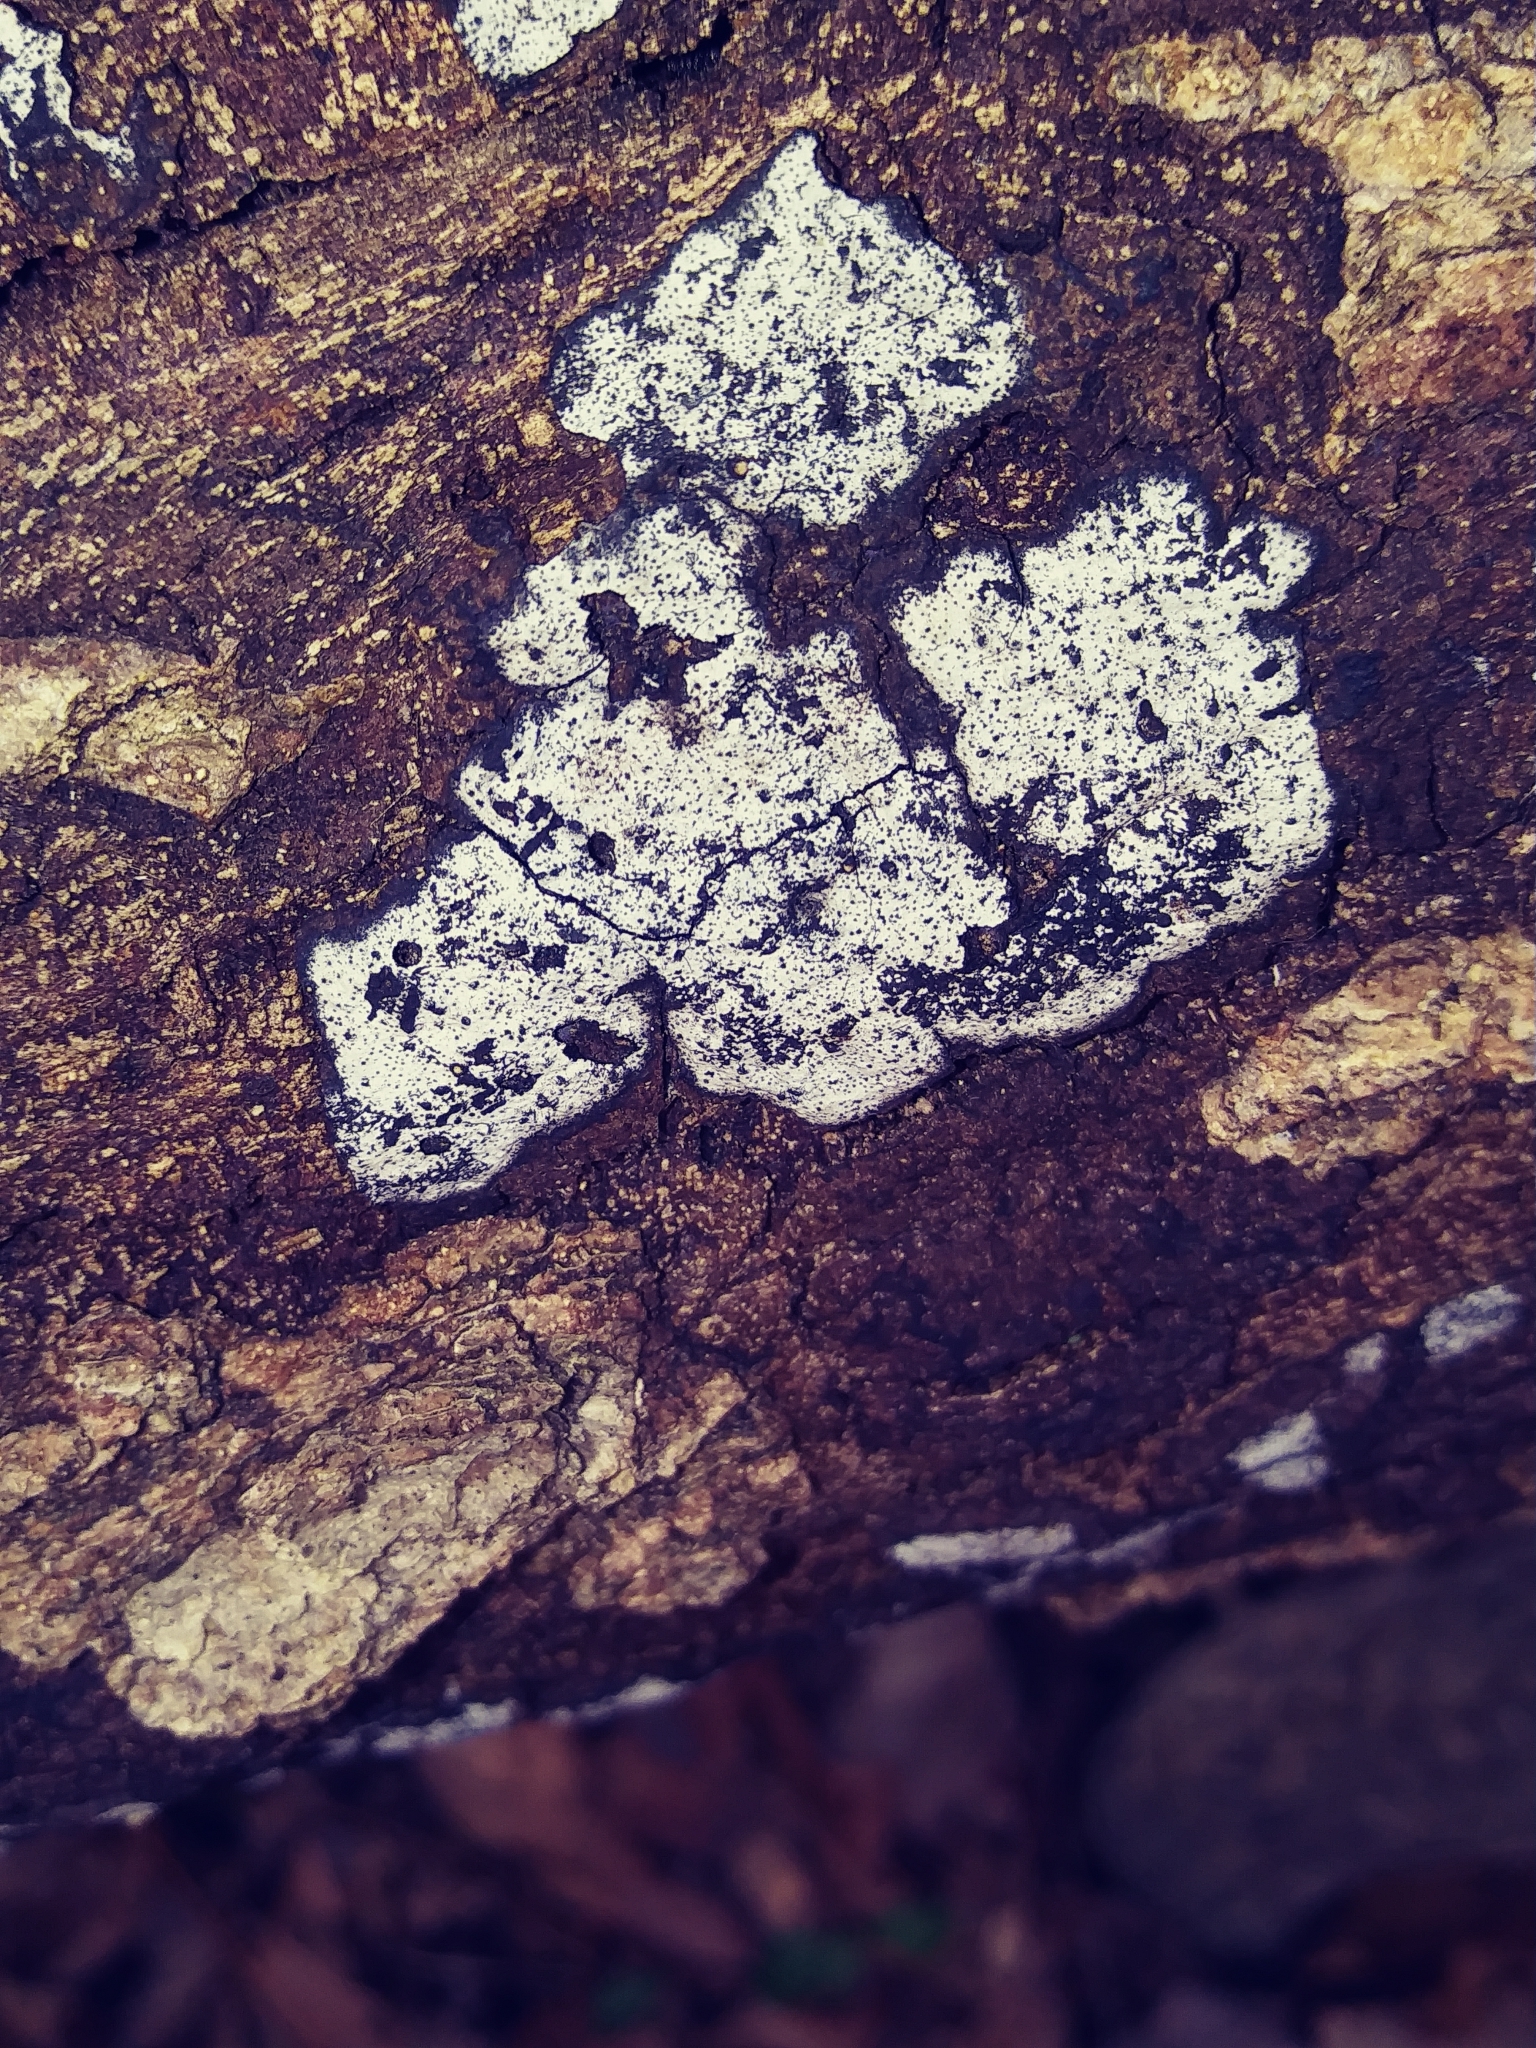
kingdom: Fungi
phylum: Ascomycota
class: Sordariomycetes
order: Xylariales
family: Graphostromataceae
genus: Biscogniauxia
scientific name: Biscogniauxia atropunctata
